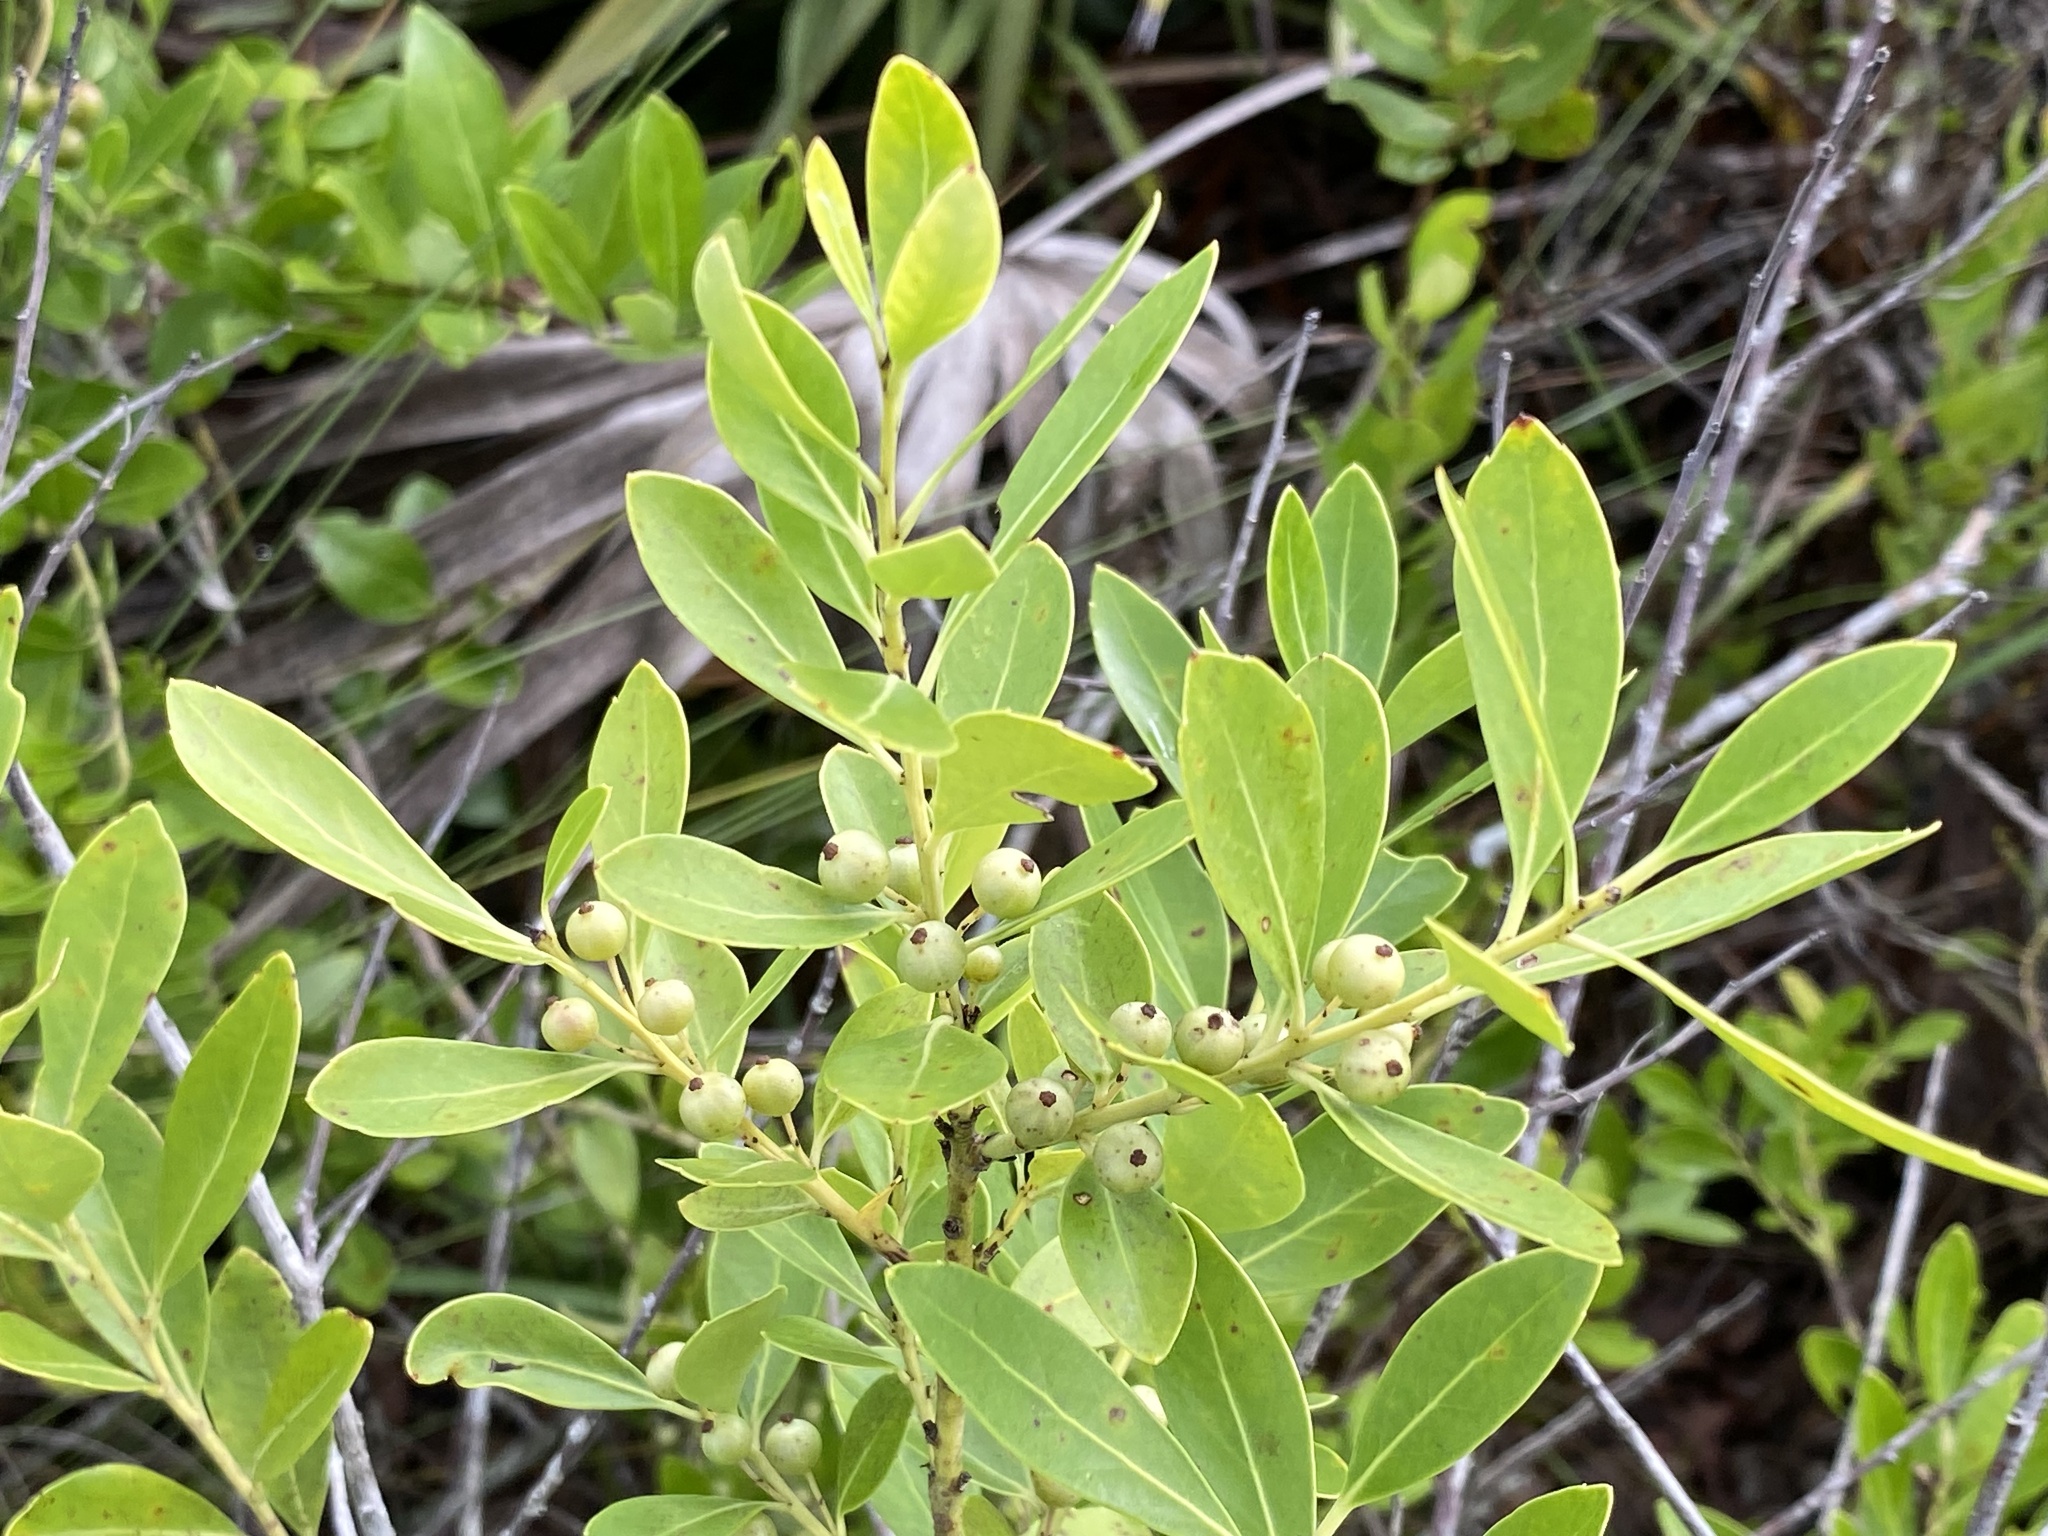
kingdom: Plantae
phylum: Tracheophyta
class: Magnoliopsida
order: Aquifoliales
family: Aquifoliaceae
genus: Ilex
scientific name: Ilex glabra
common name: Bitter gallberry
